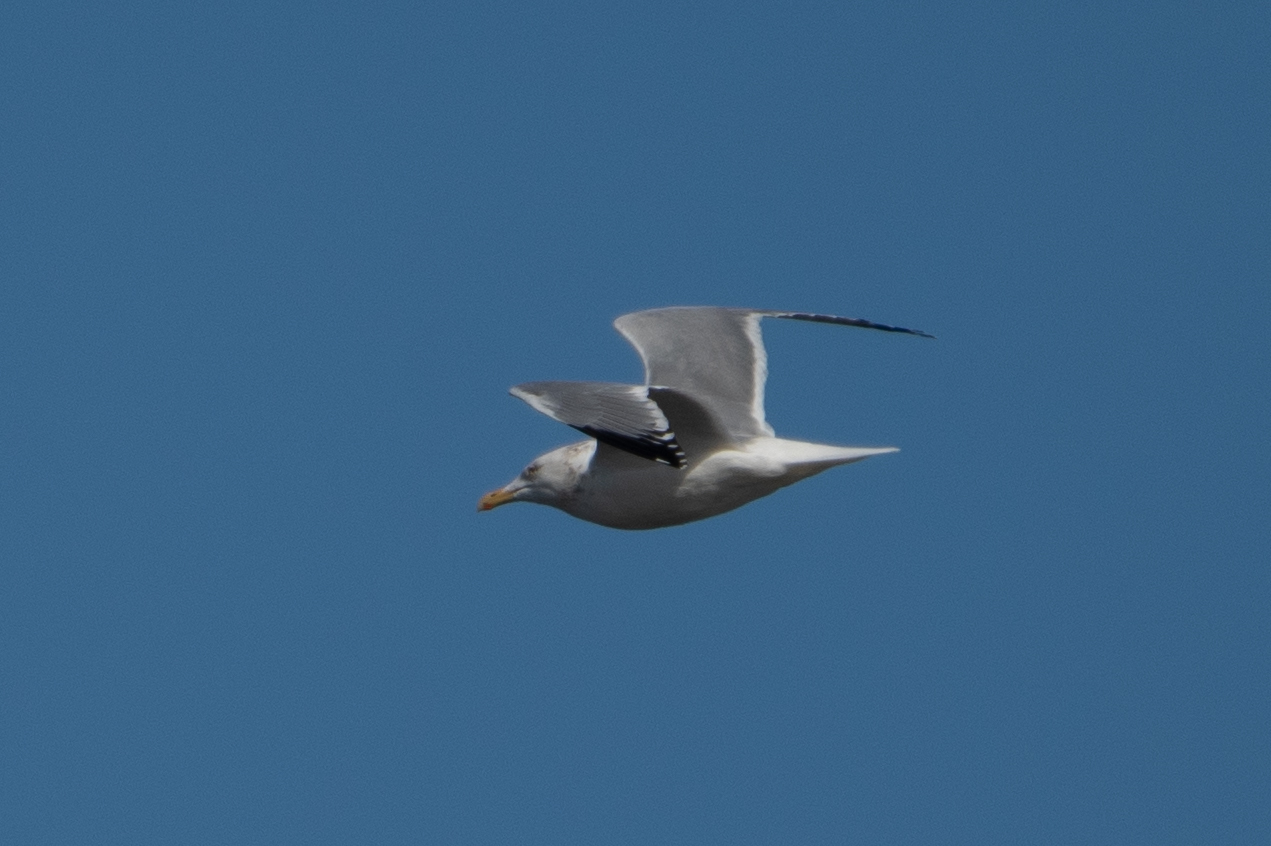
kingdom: Animalia
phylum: Chordata
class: Aves
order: Charadriiformes
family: Laridae
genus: Larus
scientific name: Larus argentatus
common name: Herring gull
